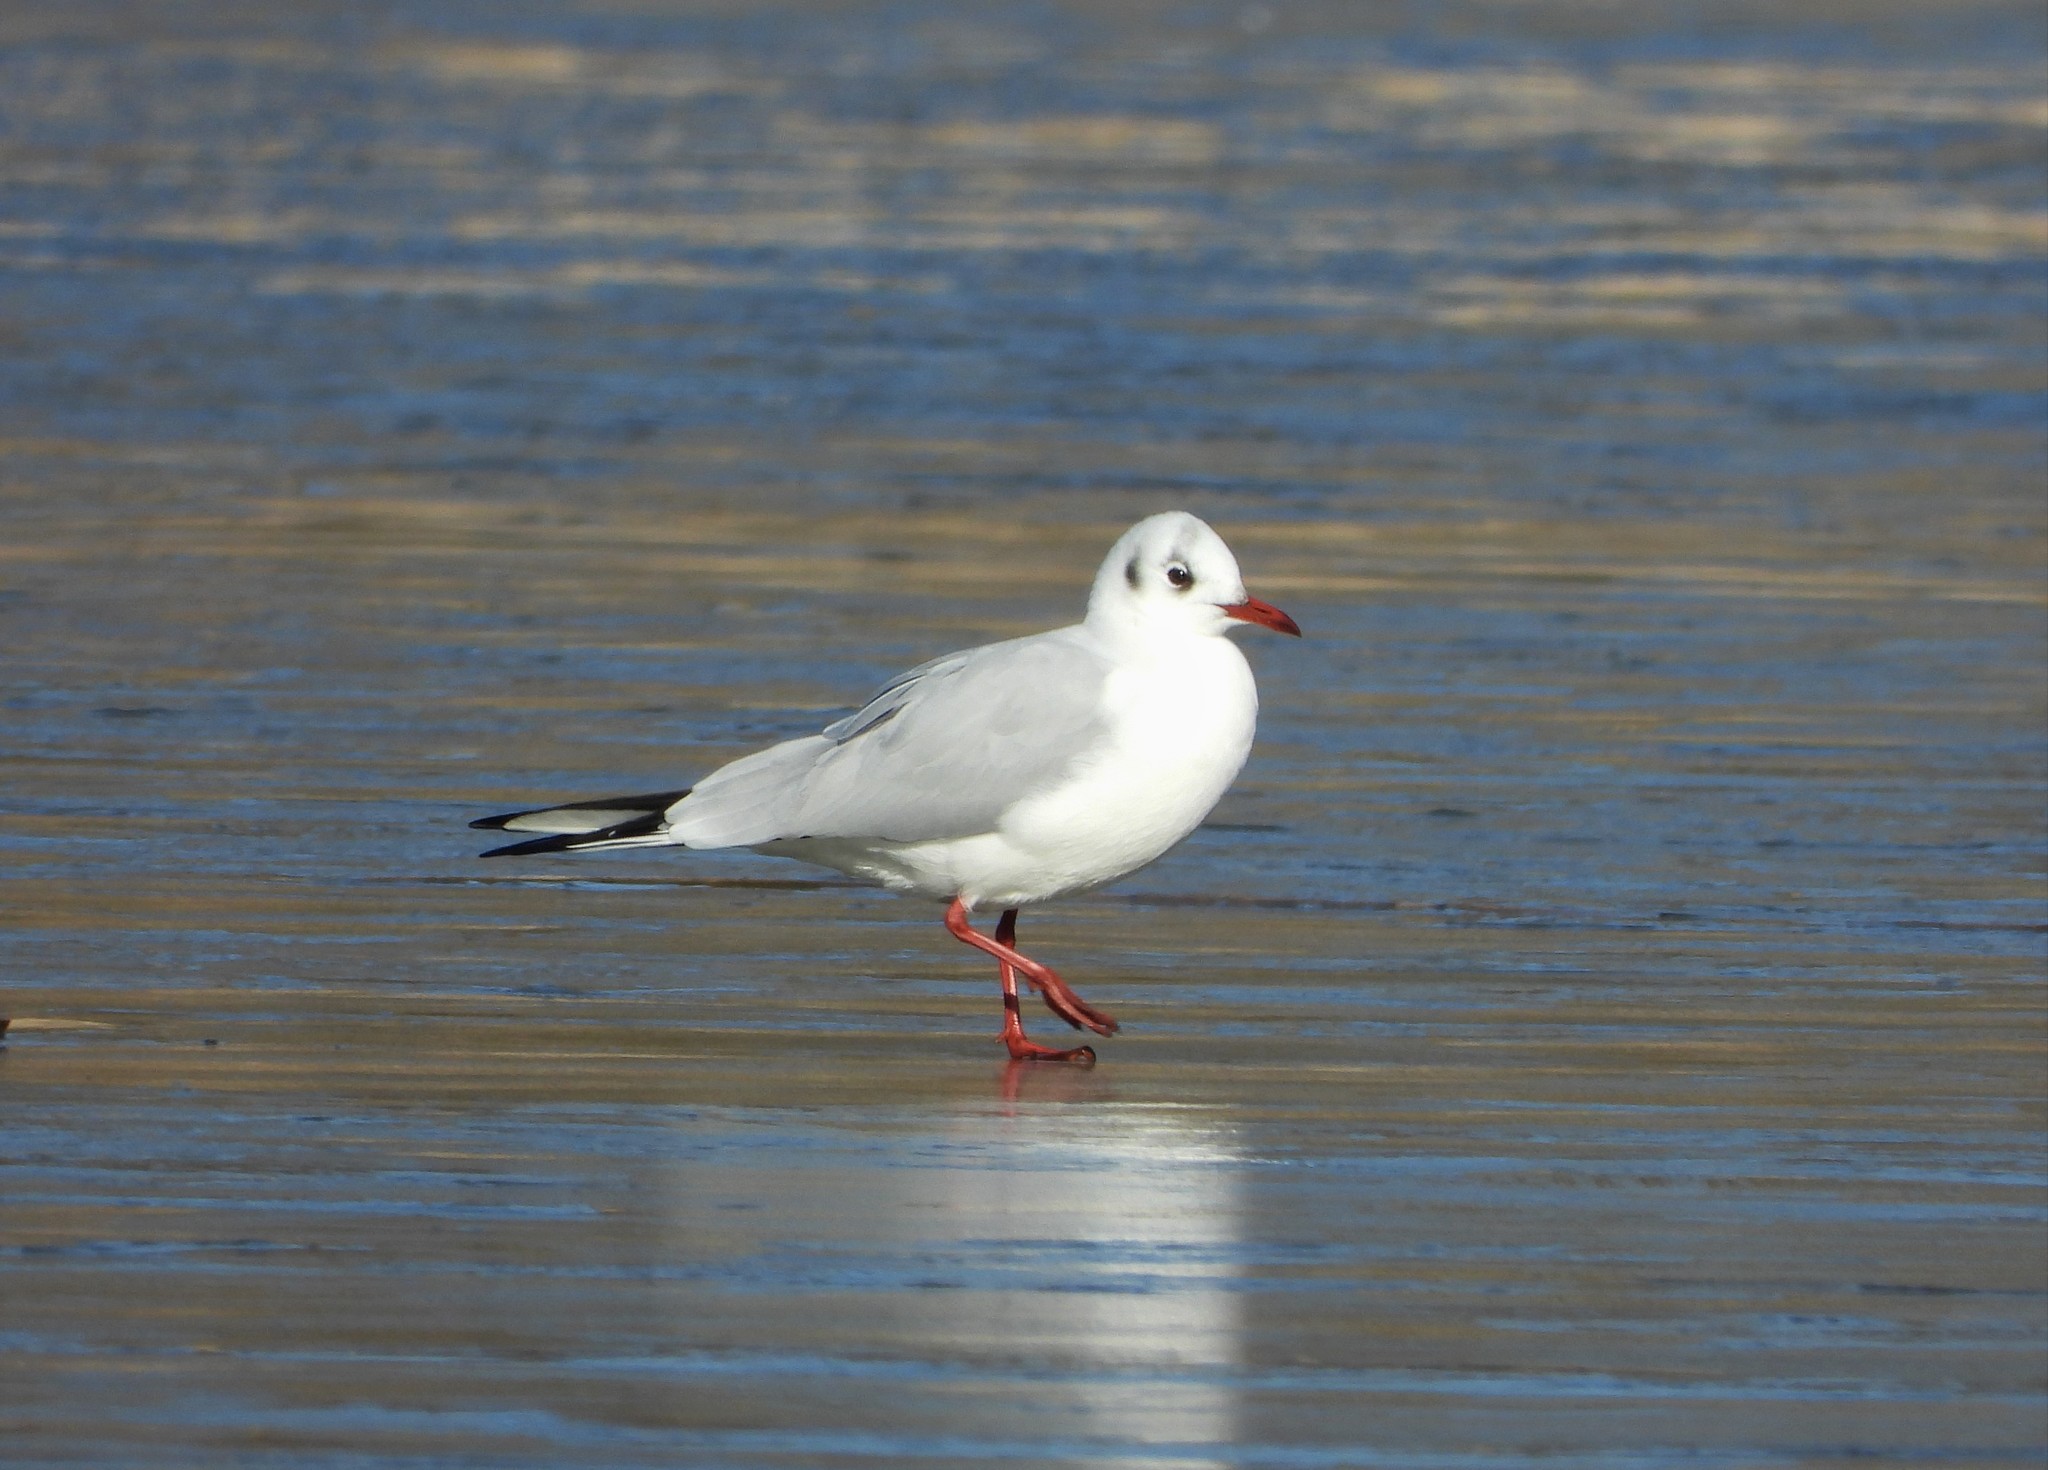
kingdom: Animalia
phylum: Chordata
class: Aves
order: Charadriiformes
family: Laridae
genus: Chroicocephalus
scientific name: Chroicocephalus ridibundus
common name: Black-headed gull
